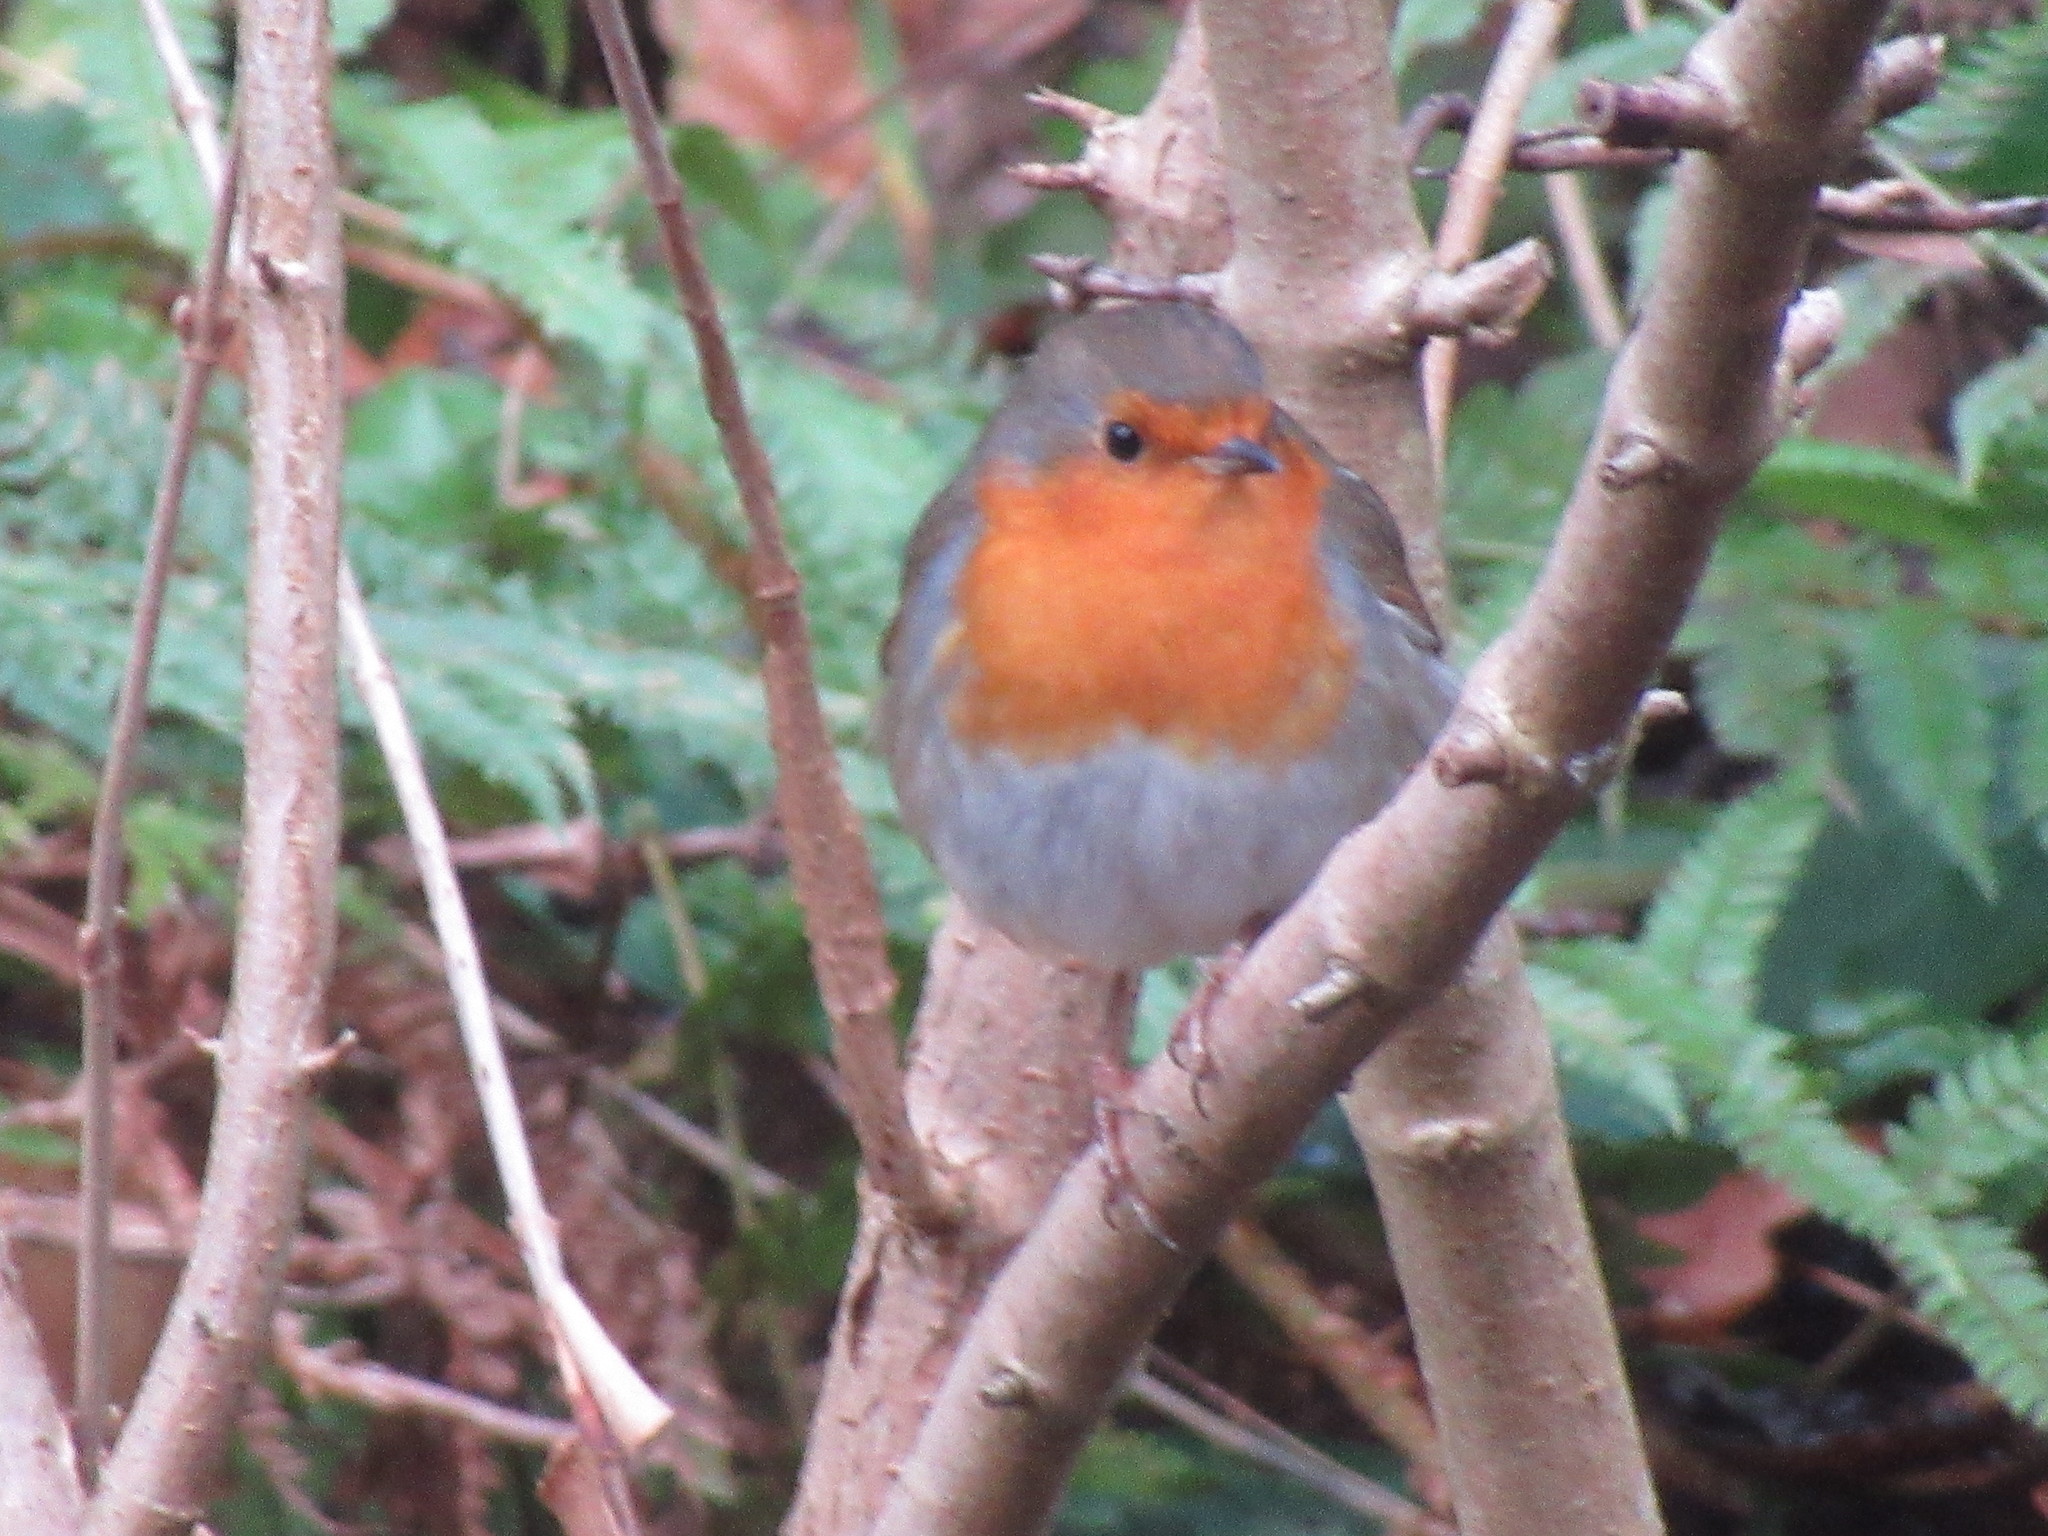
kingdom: Animalia
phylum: Chordata
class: Aves
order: Passeriformes
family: Muscicapidae
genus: Erithacus
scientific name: Erithacus rubecula
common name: European robin
